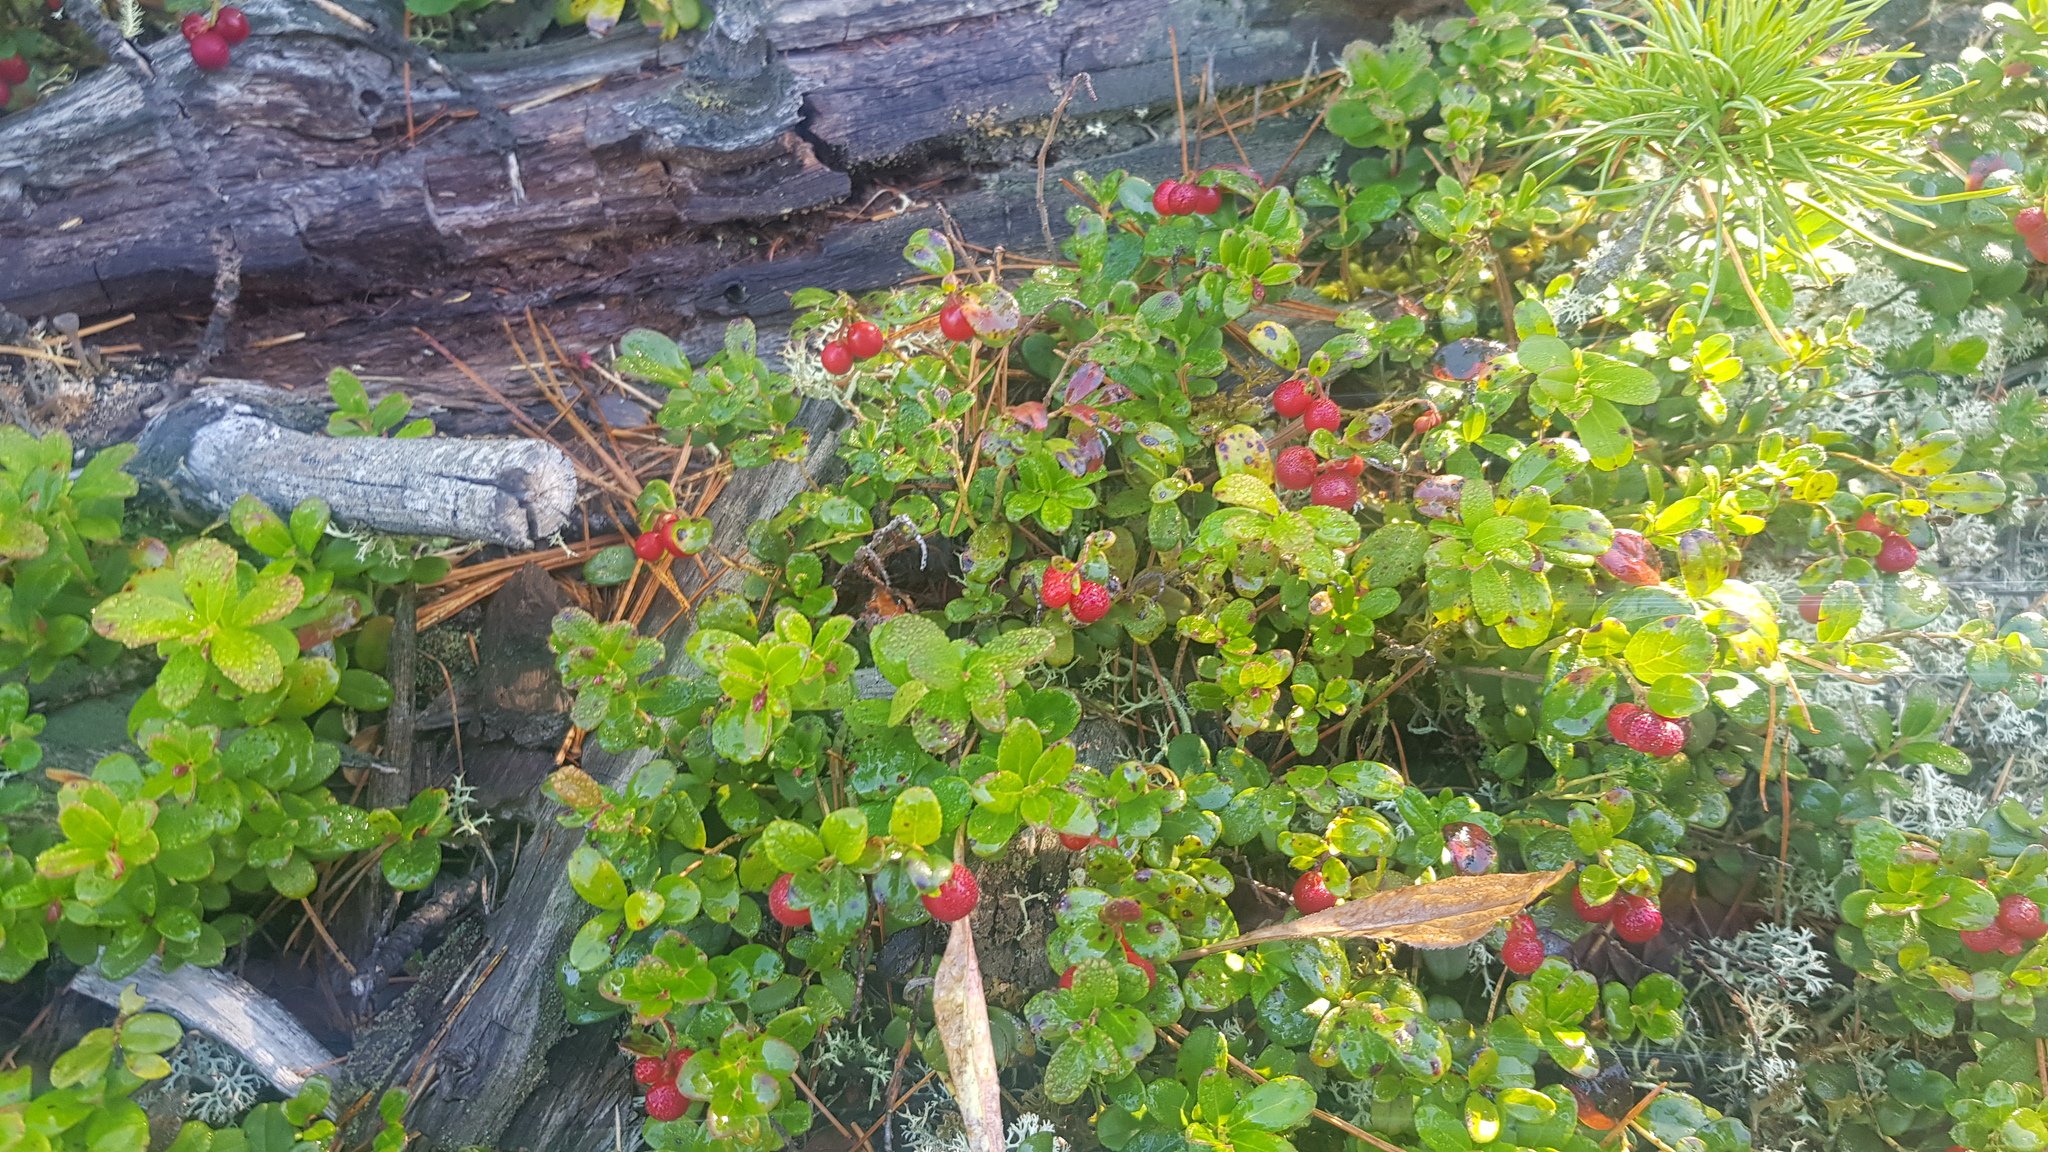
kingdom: Plantae
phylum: Tracheophyta
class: Magnoliopsida
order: Ericales
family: Ericaceae
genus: Vaccinium
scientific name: Vaccinium vitis-idaea
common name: Cowberry
